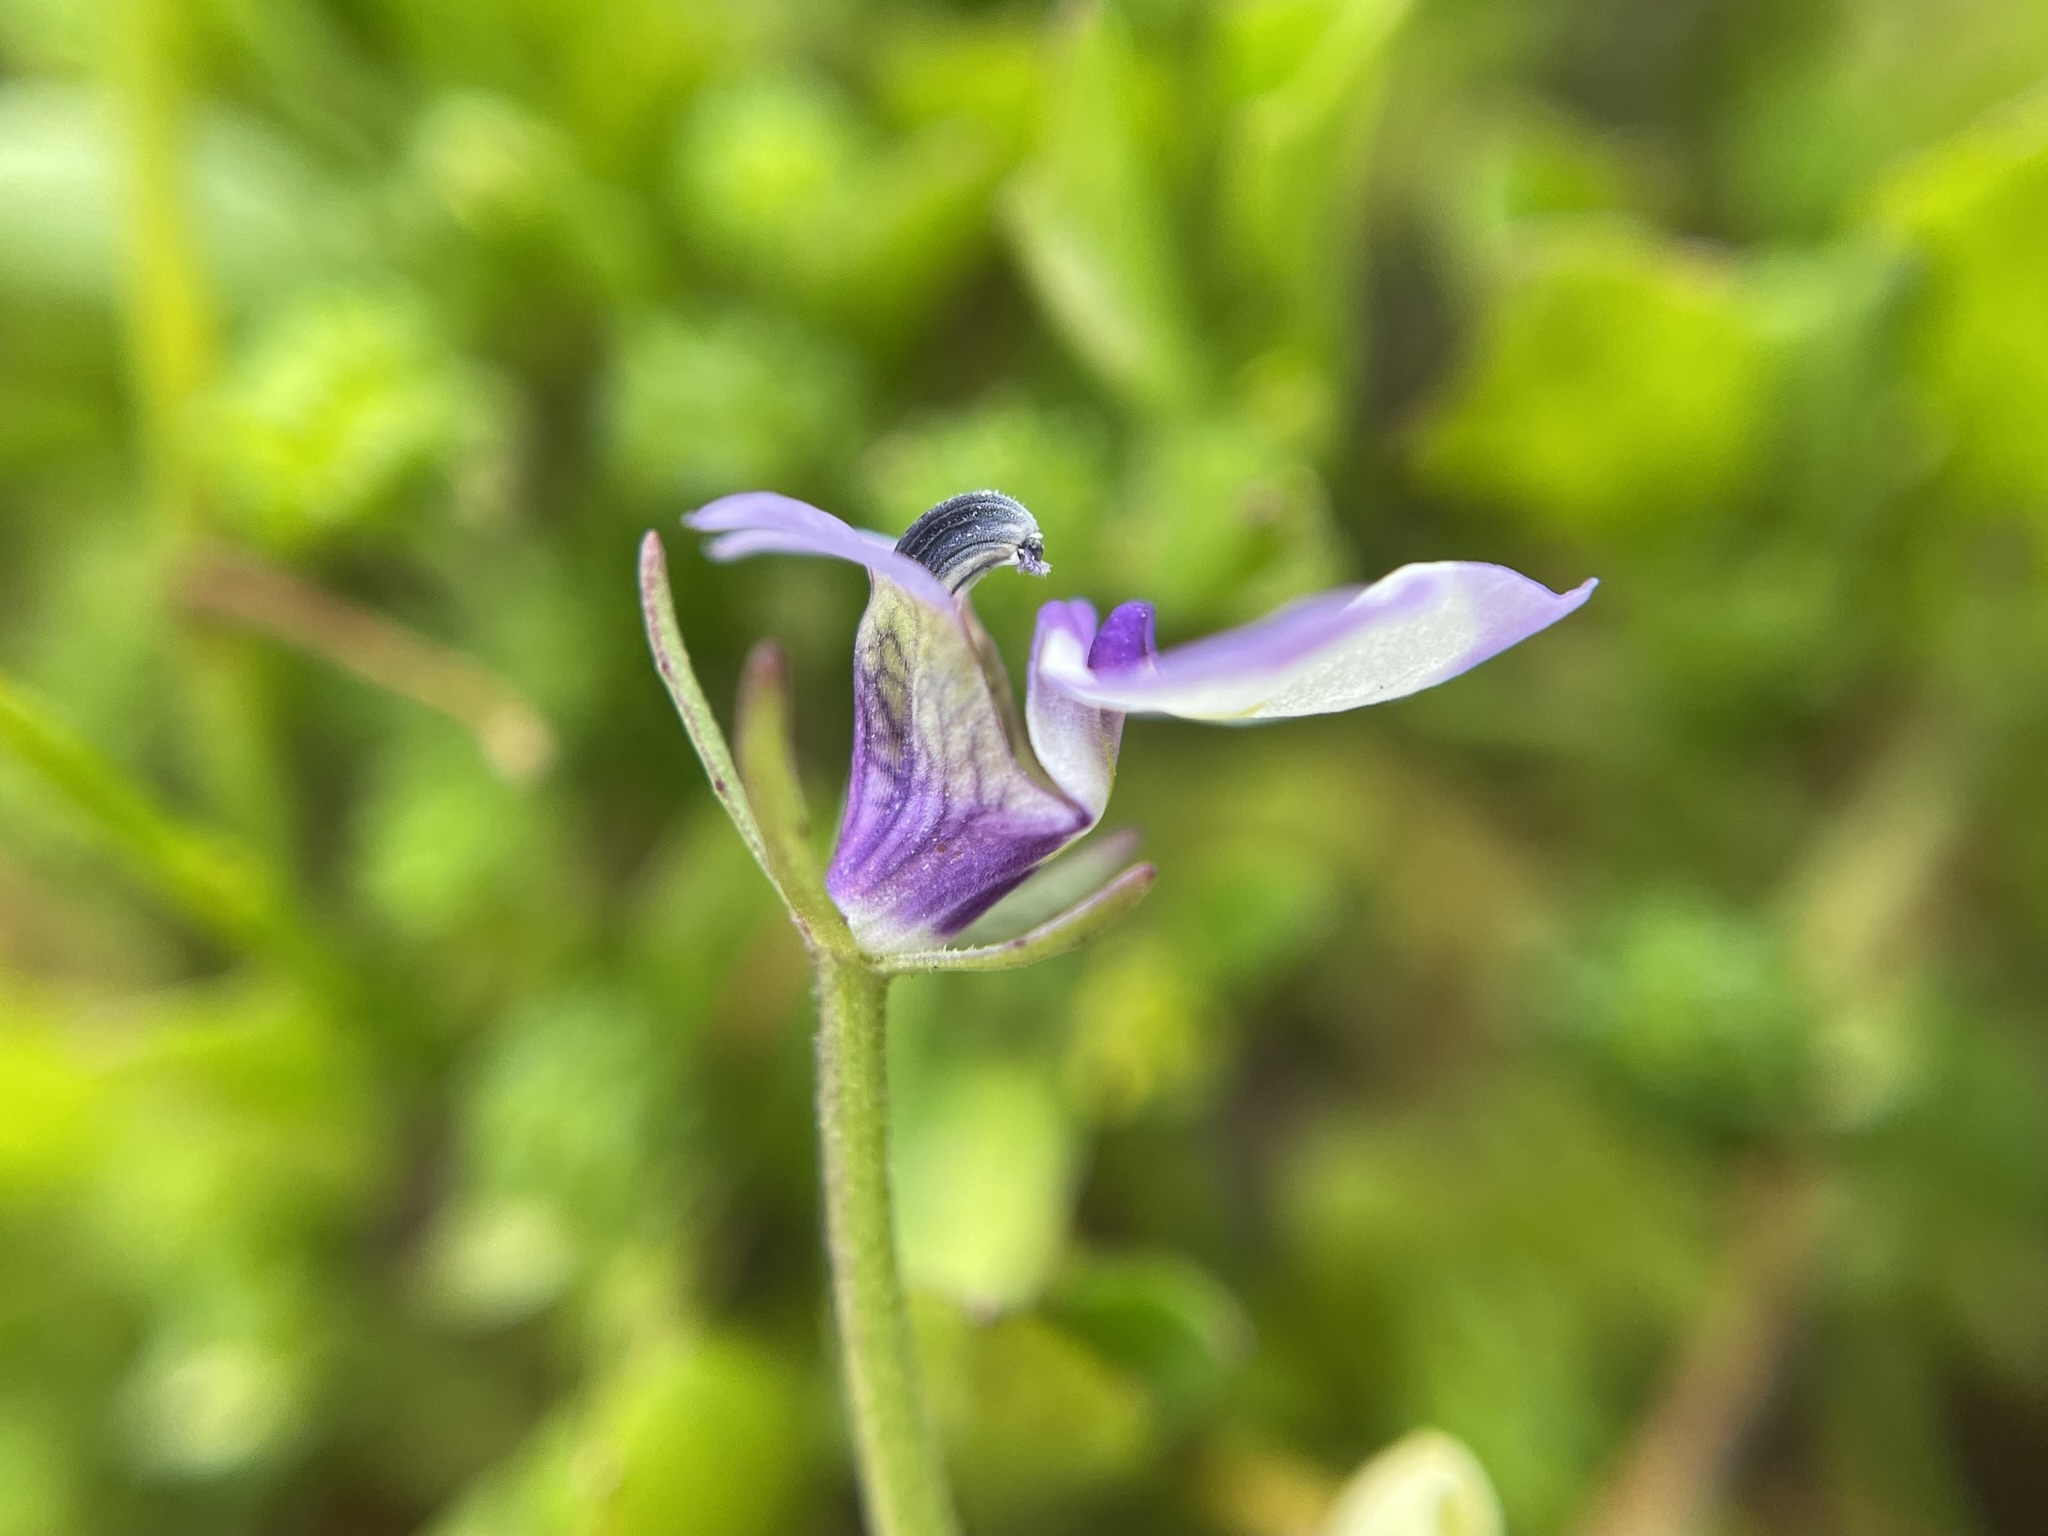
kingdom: Plantae
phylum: Tracheophyta
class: Magnoliopsida
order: Asterales
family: Campanulaceae
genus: Downingia
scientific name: Downingia bicornuta
